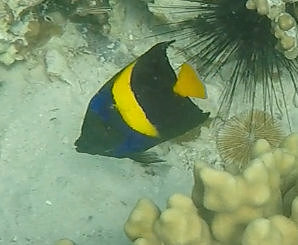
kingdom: Animalia
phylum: Chordata
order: Perciformes
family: Pomacanthidae
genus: Pomacanthus
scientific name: Pomacanthus asfur
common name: Arabian angelfish
